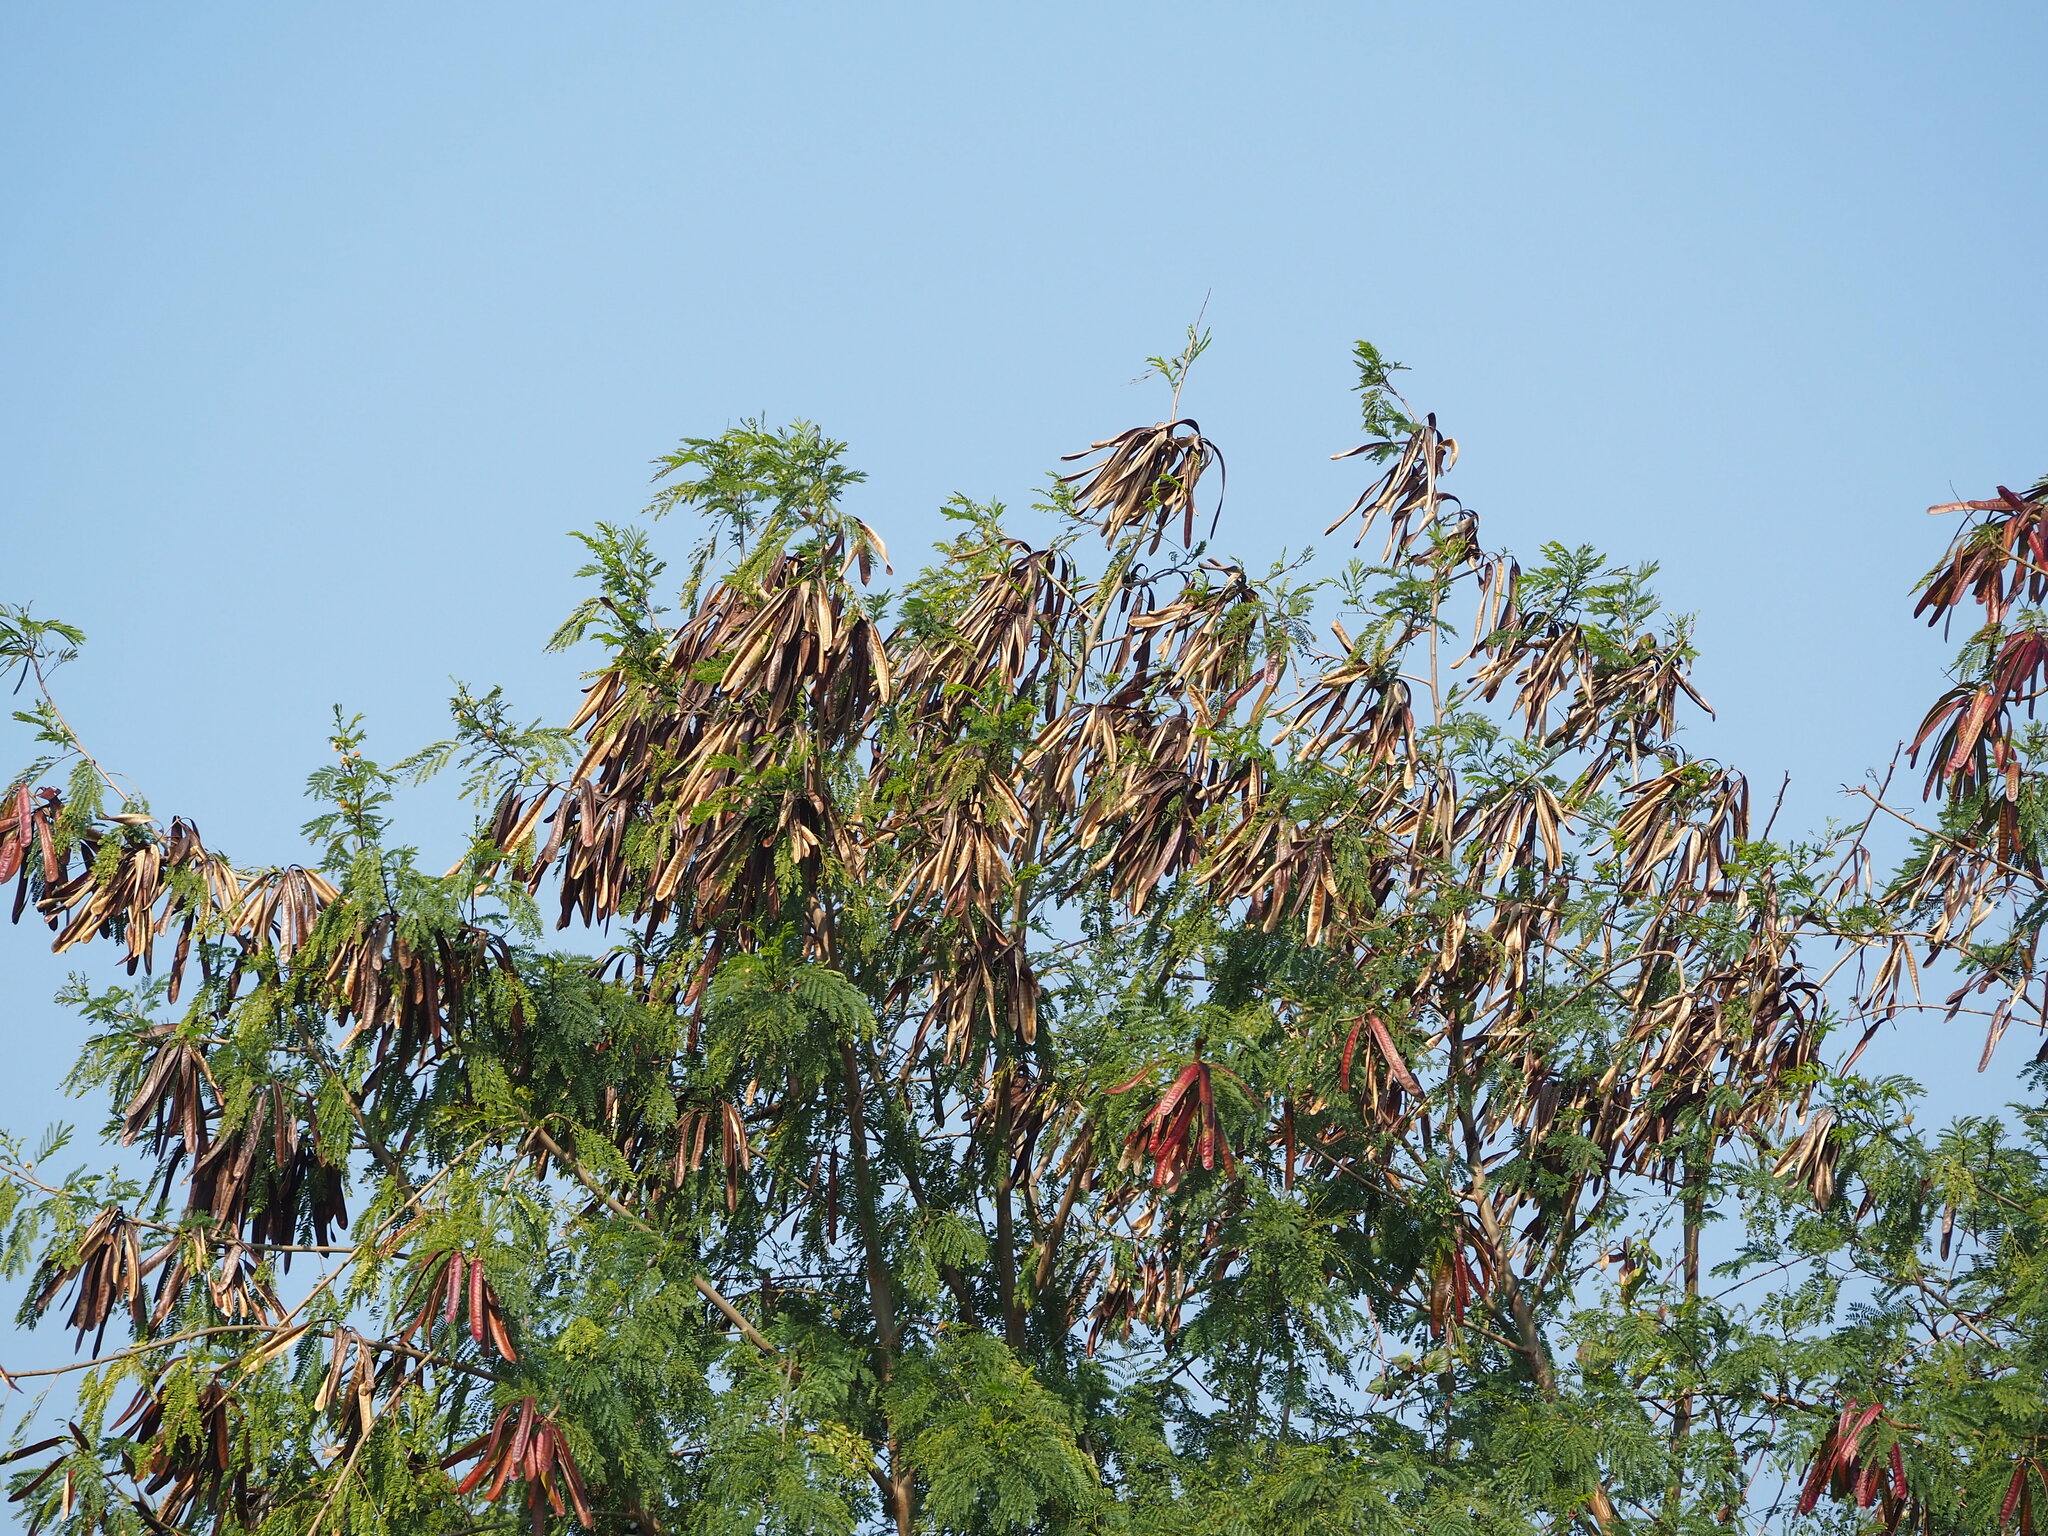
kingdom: Plantae
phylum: Tracheophyta
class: Magnoliopsida
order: Fabales
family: Fabaceae
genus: Leucaena
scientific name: Leucaena leucocephala
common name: White leadtree
